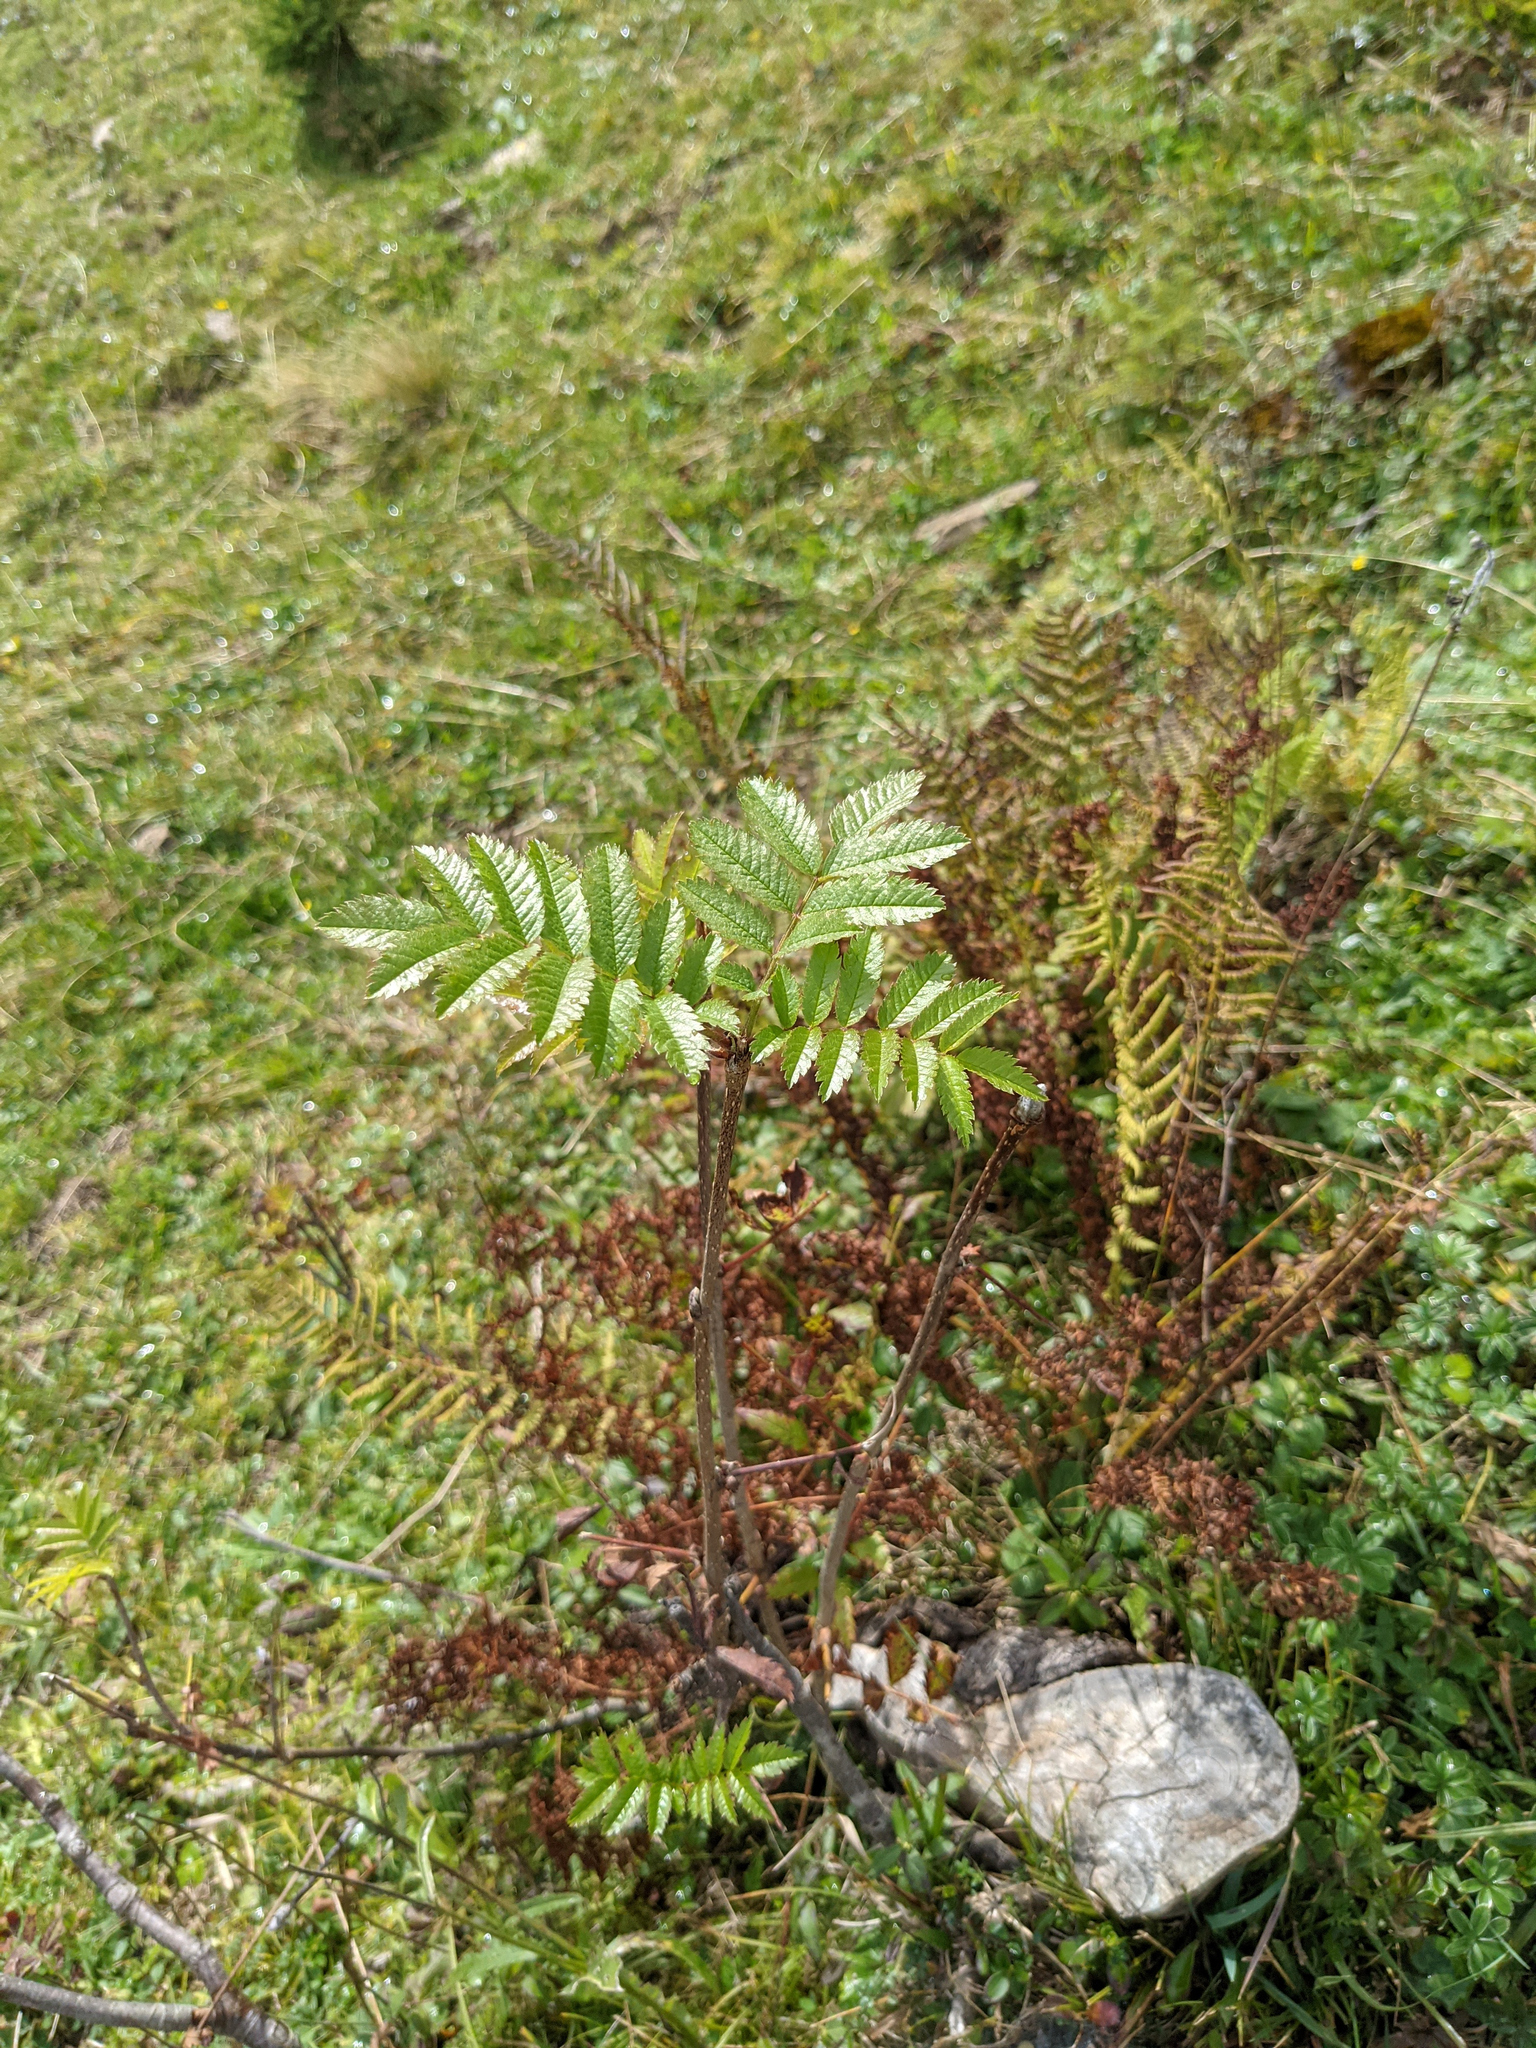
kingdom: Plantae
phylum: Tracheophyta
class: Magnoliopsida
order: Rosales
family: Rosaceae
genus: Sorbus
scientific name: Sorbus aucuparia
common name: Rowan
